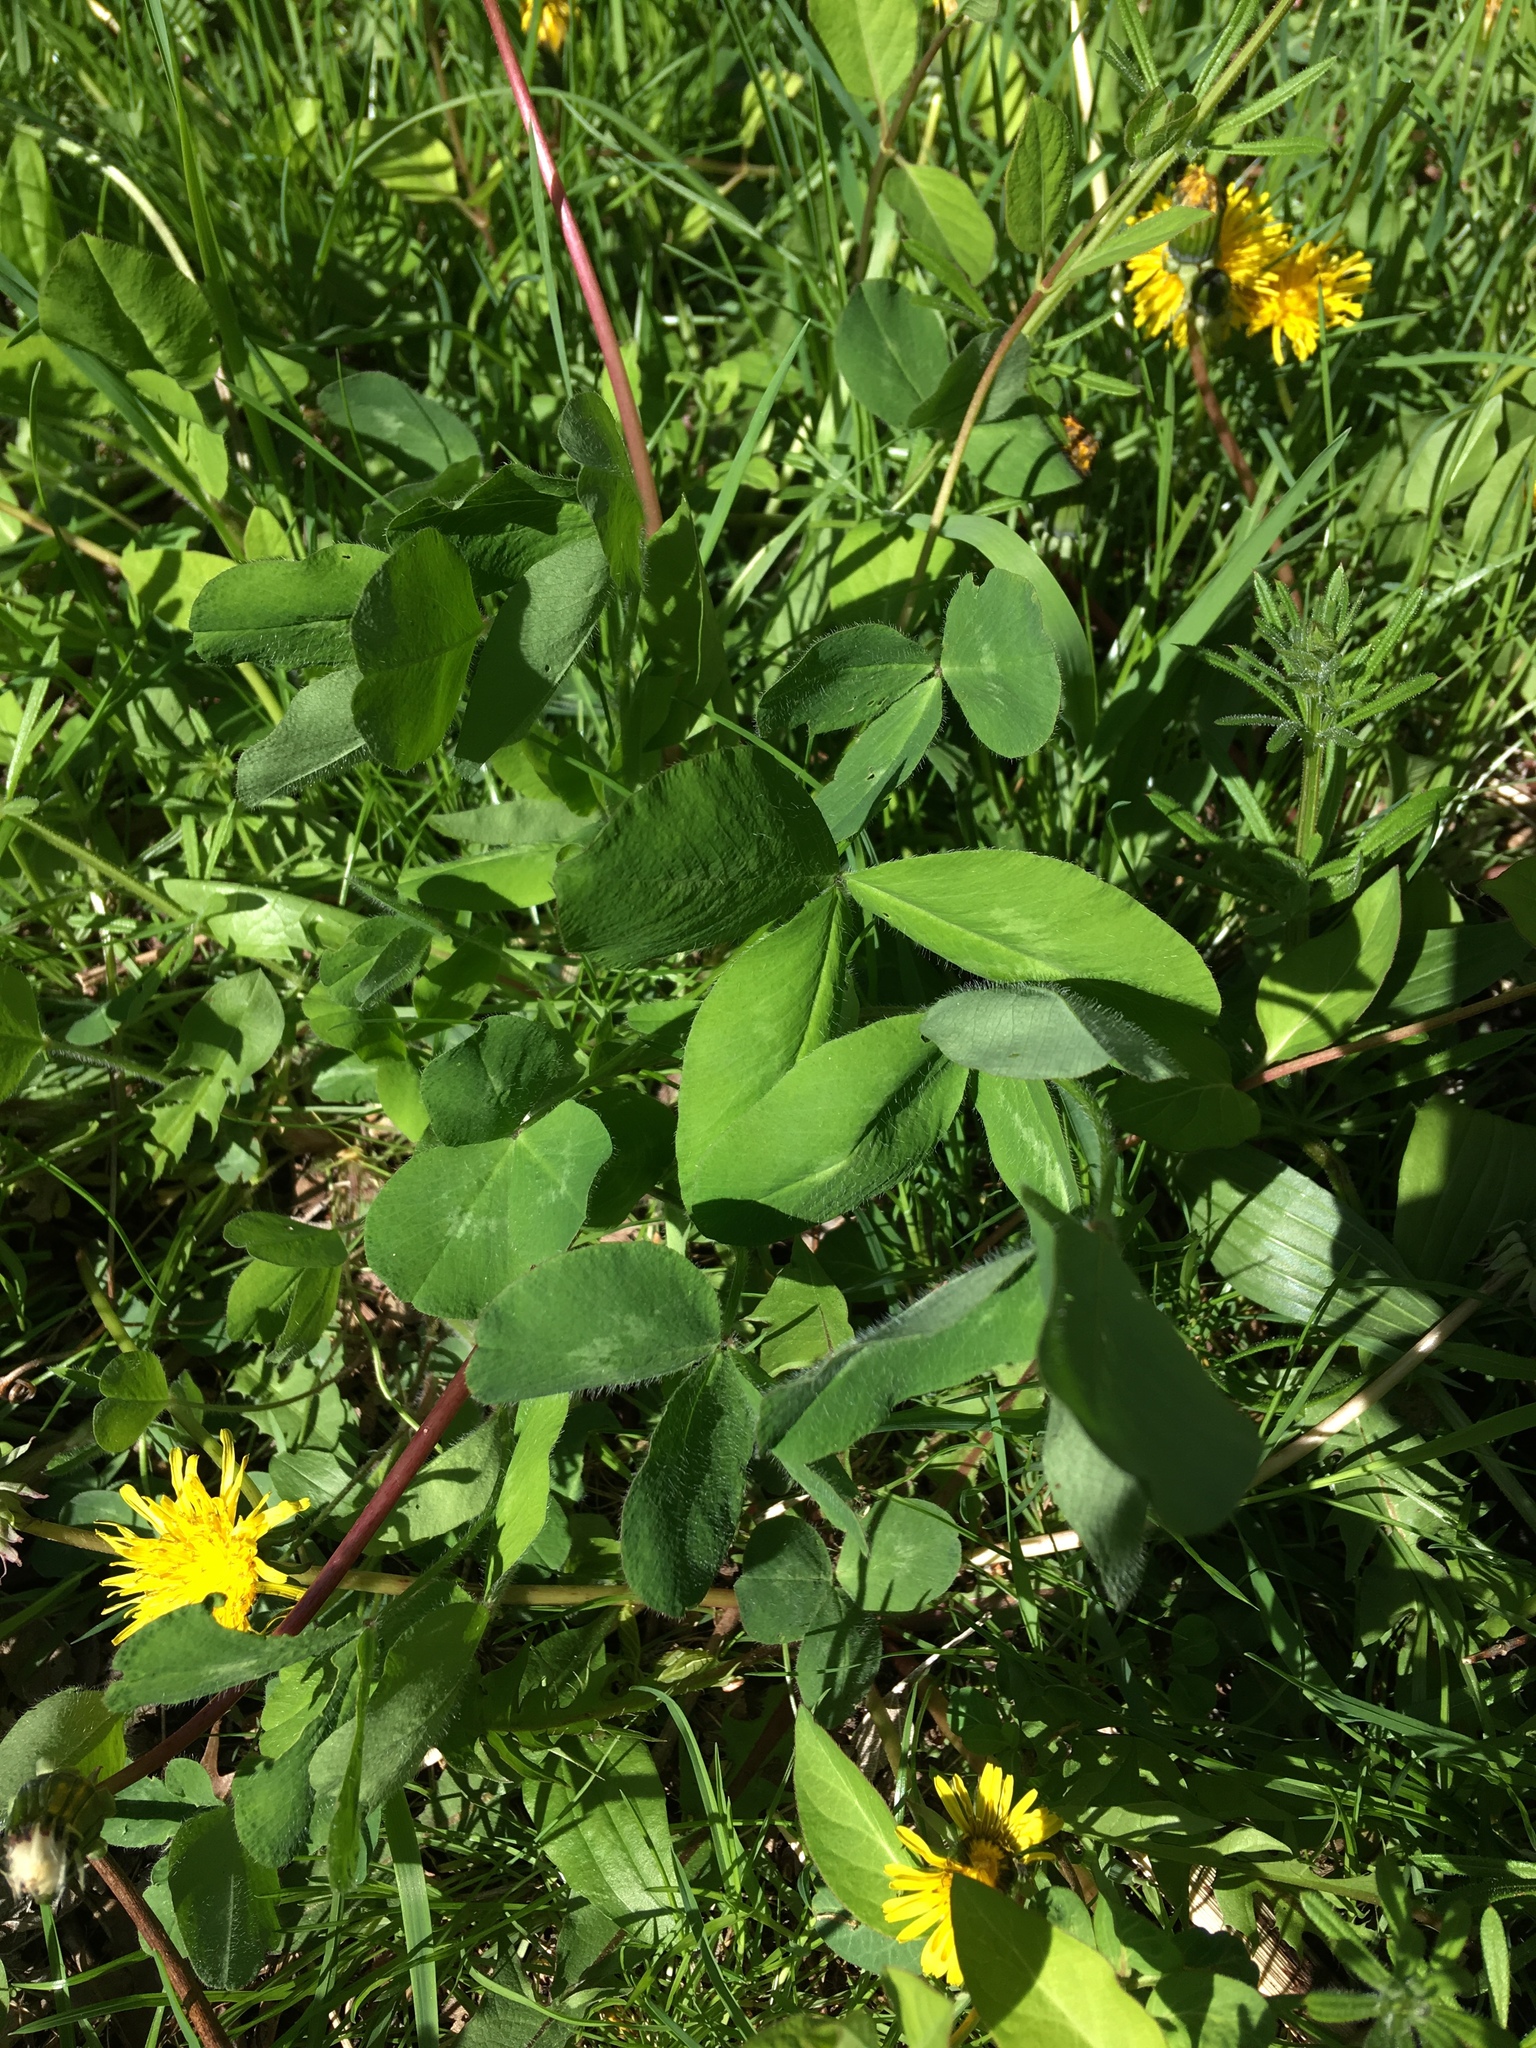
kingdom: Plantae
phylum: Tracheophyta
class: Magnoliopsida
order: Fabales
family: Fabaceae
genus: Trifolium
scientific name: Trifolium pratense
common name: Red clover
